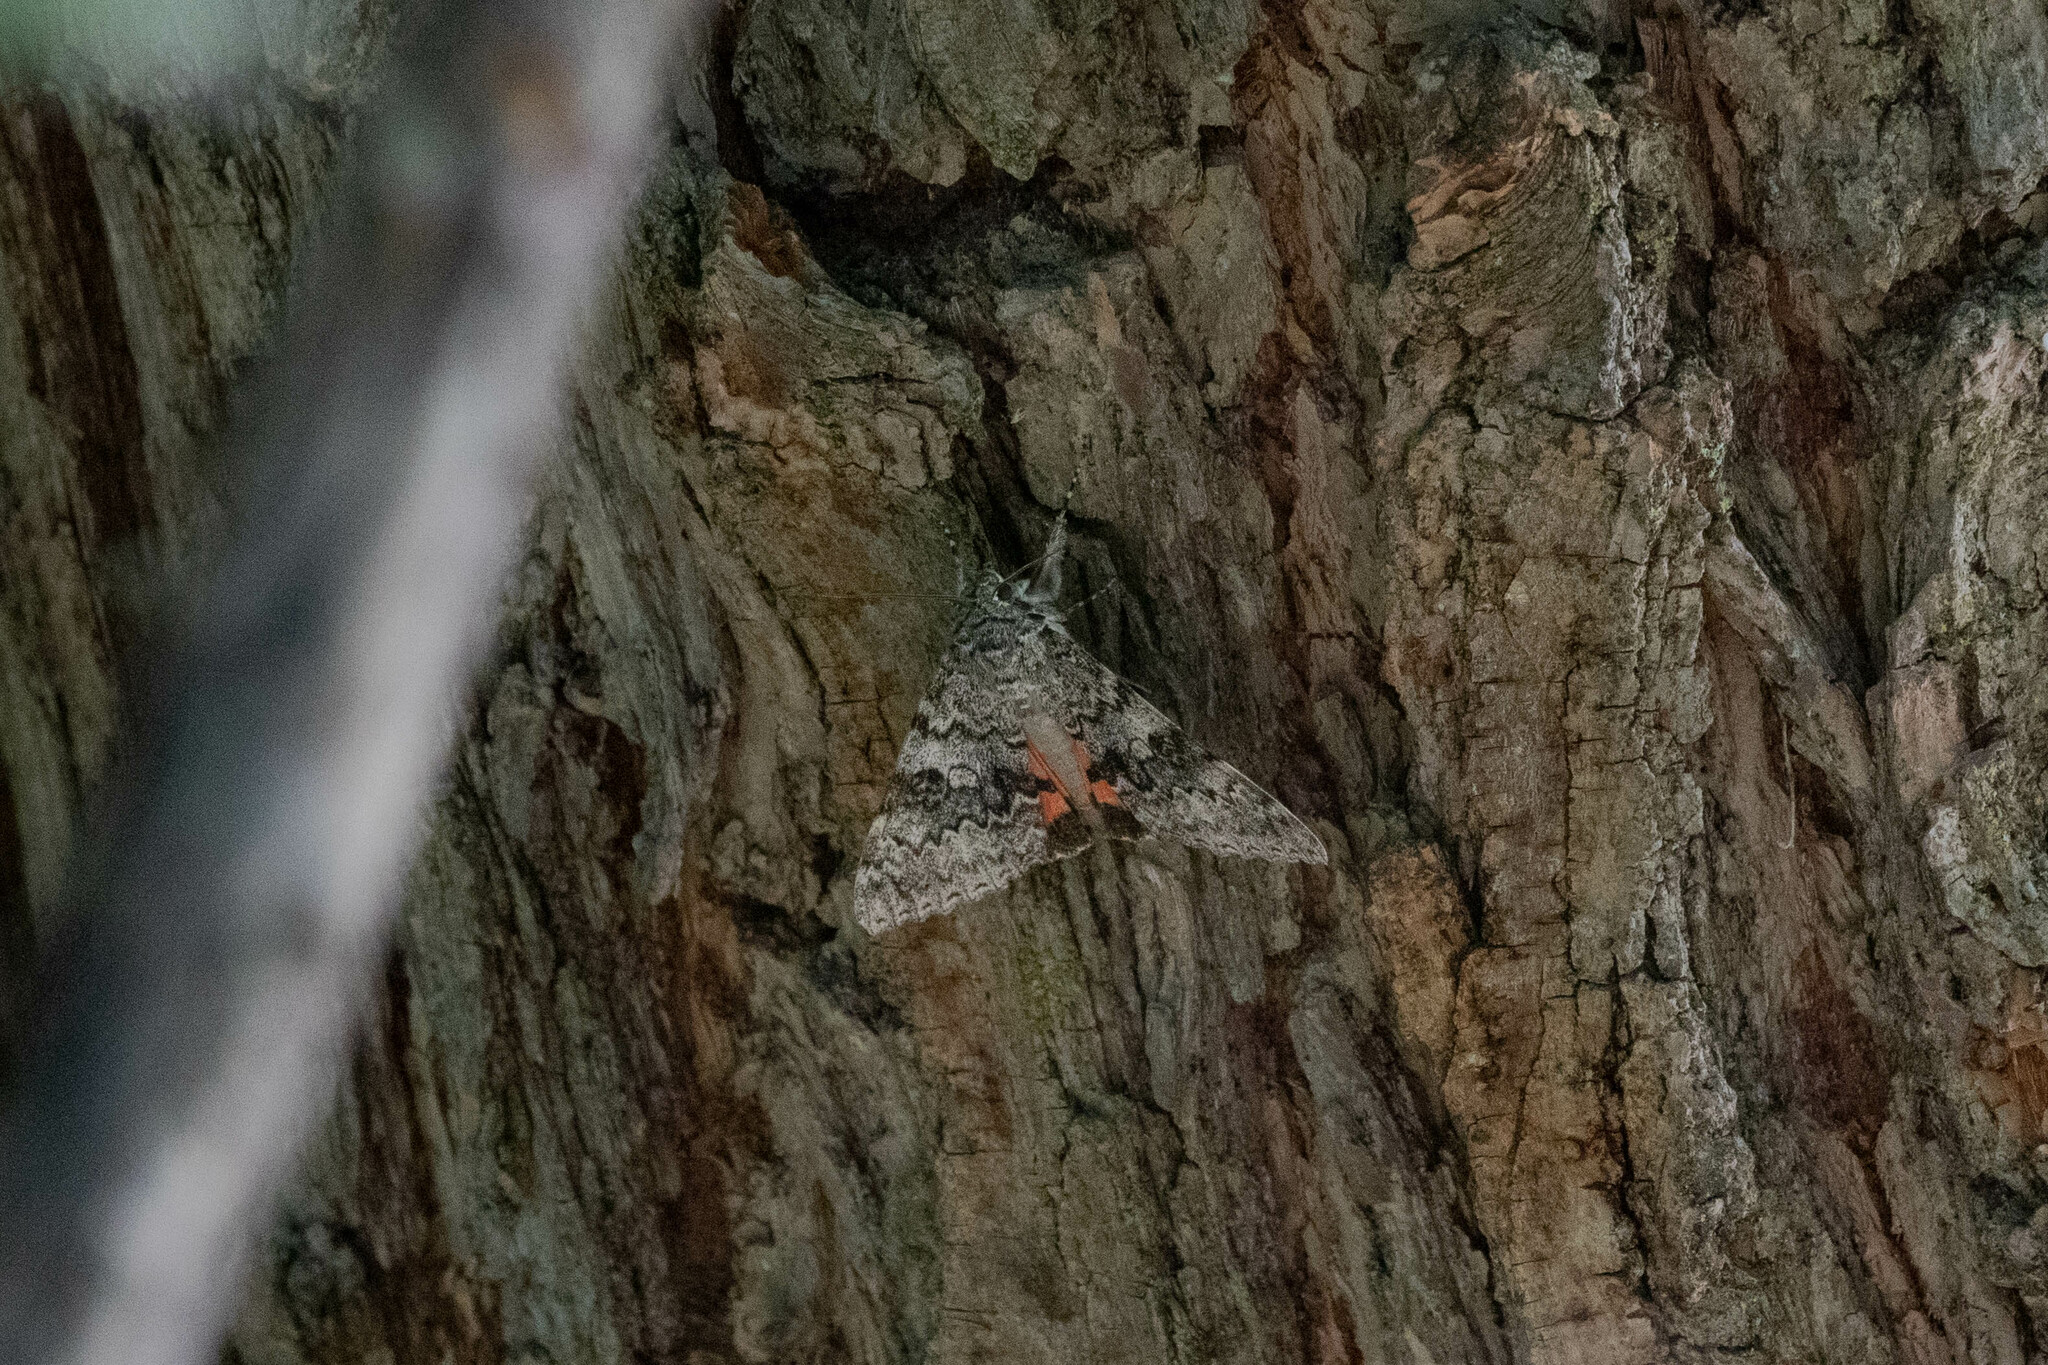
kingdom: Animalia
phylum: Arthropoda
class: Insecta
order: Lepidoptera
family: Erebidae
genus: Catocala
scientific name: Catocala semirelicta
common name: Semirelict underwing moth
